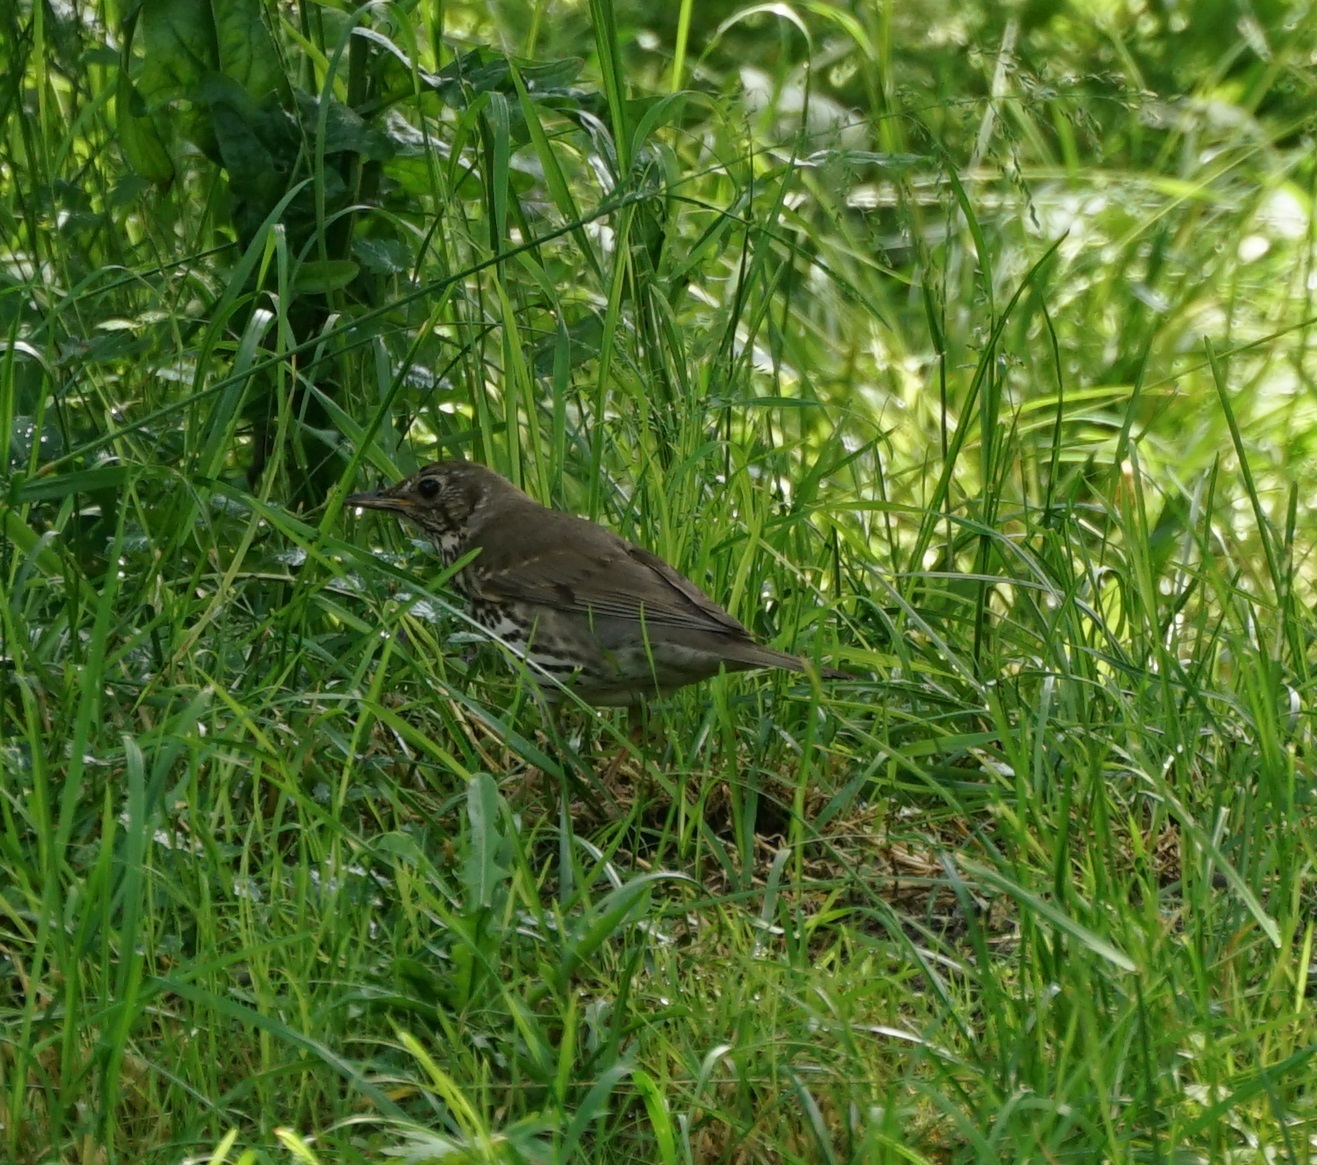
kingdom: Animalia
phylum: Chordata
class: Aves
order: Passeriformes
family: Turdidae
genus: Turdus
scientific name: Turdus philomelos
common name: Song thrush
